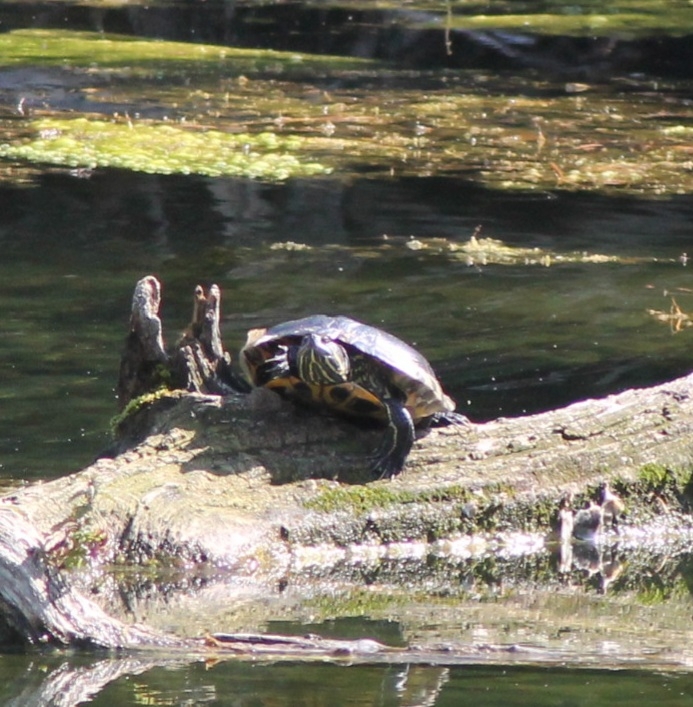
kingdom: Animalia
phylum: Chordata
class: Testudines
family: Emydidae
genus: Trachemys
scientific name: Trachemys scripta
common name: Slider
